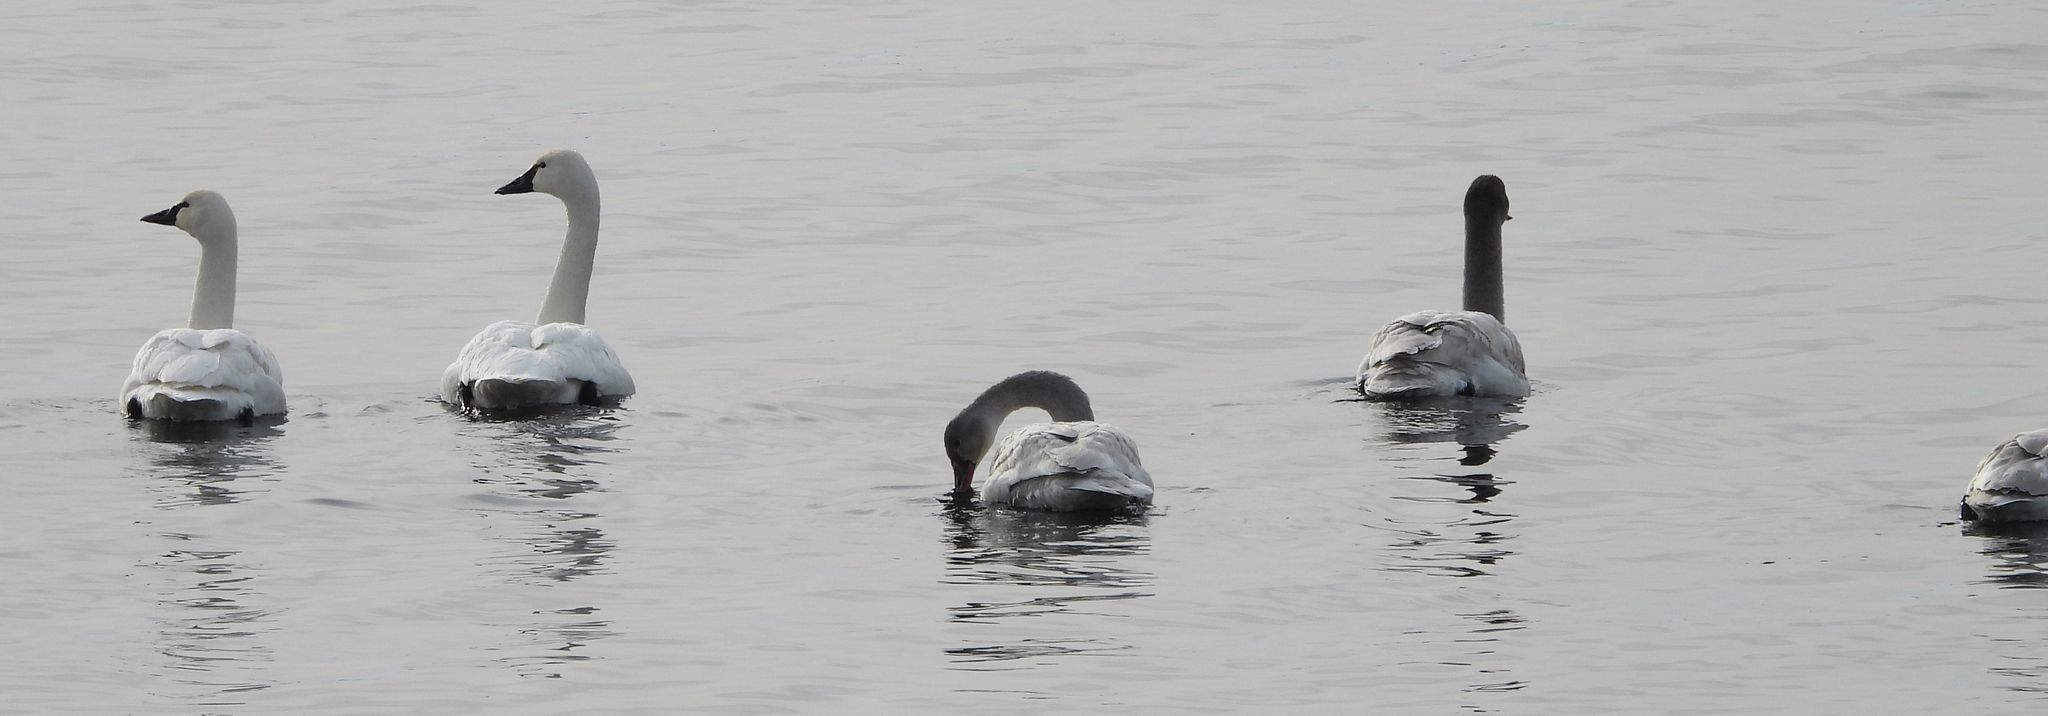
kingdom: Animalia
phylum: Chordata
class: Aves
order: Anseriformes
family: Anatidae
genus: Cygnus
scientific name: Cygnus columbianus
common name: Tundra swan
